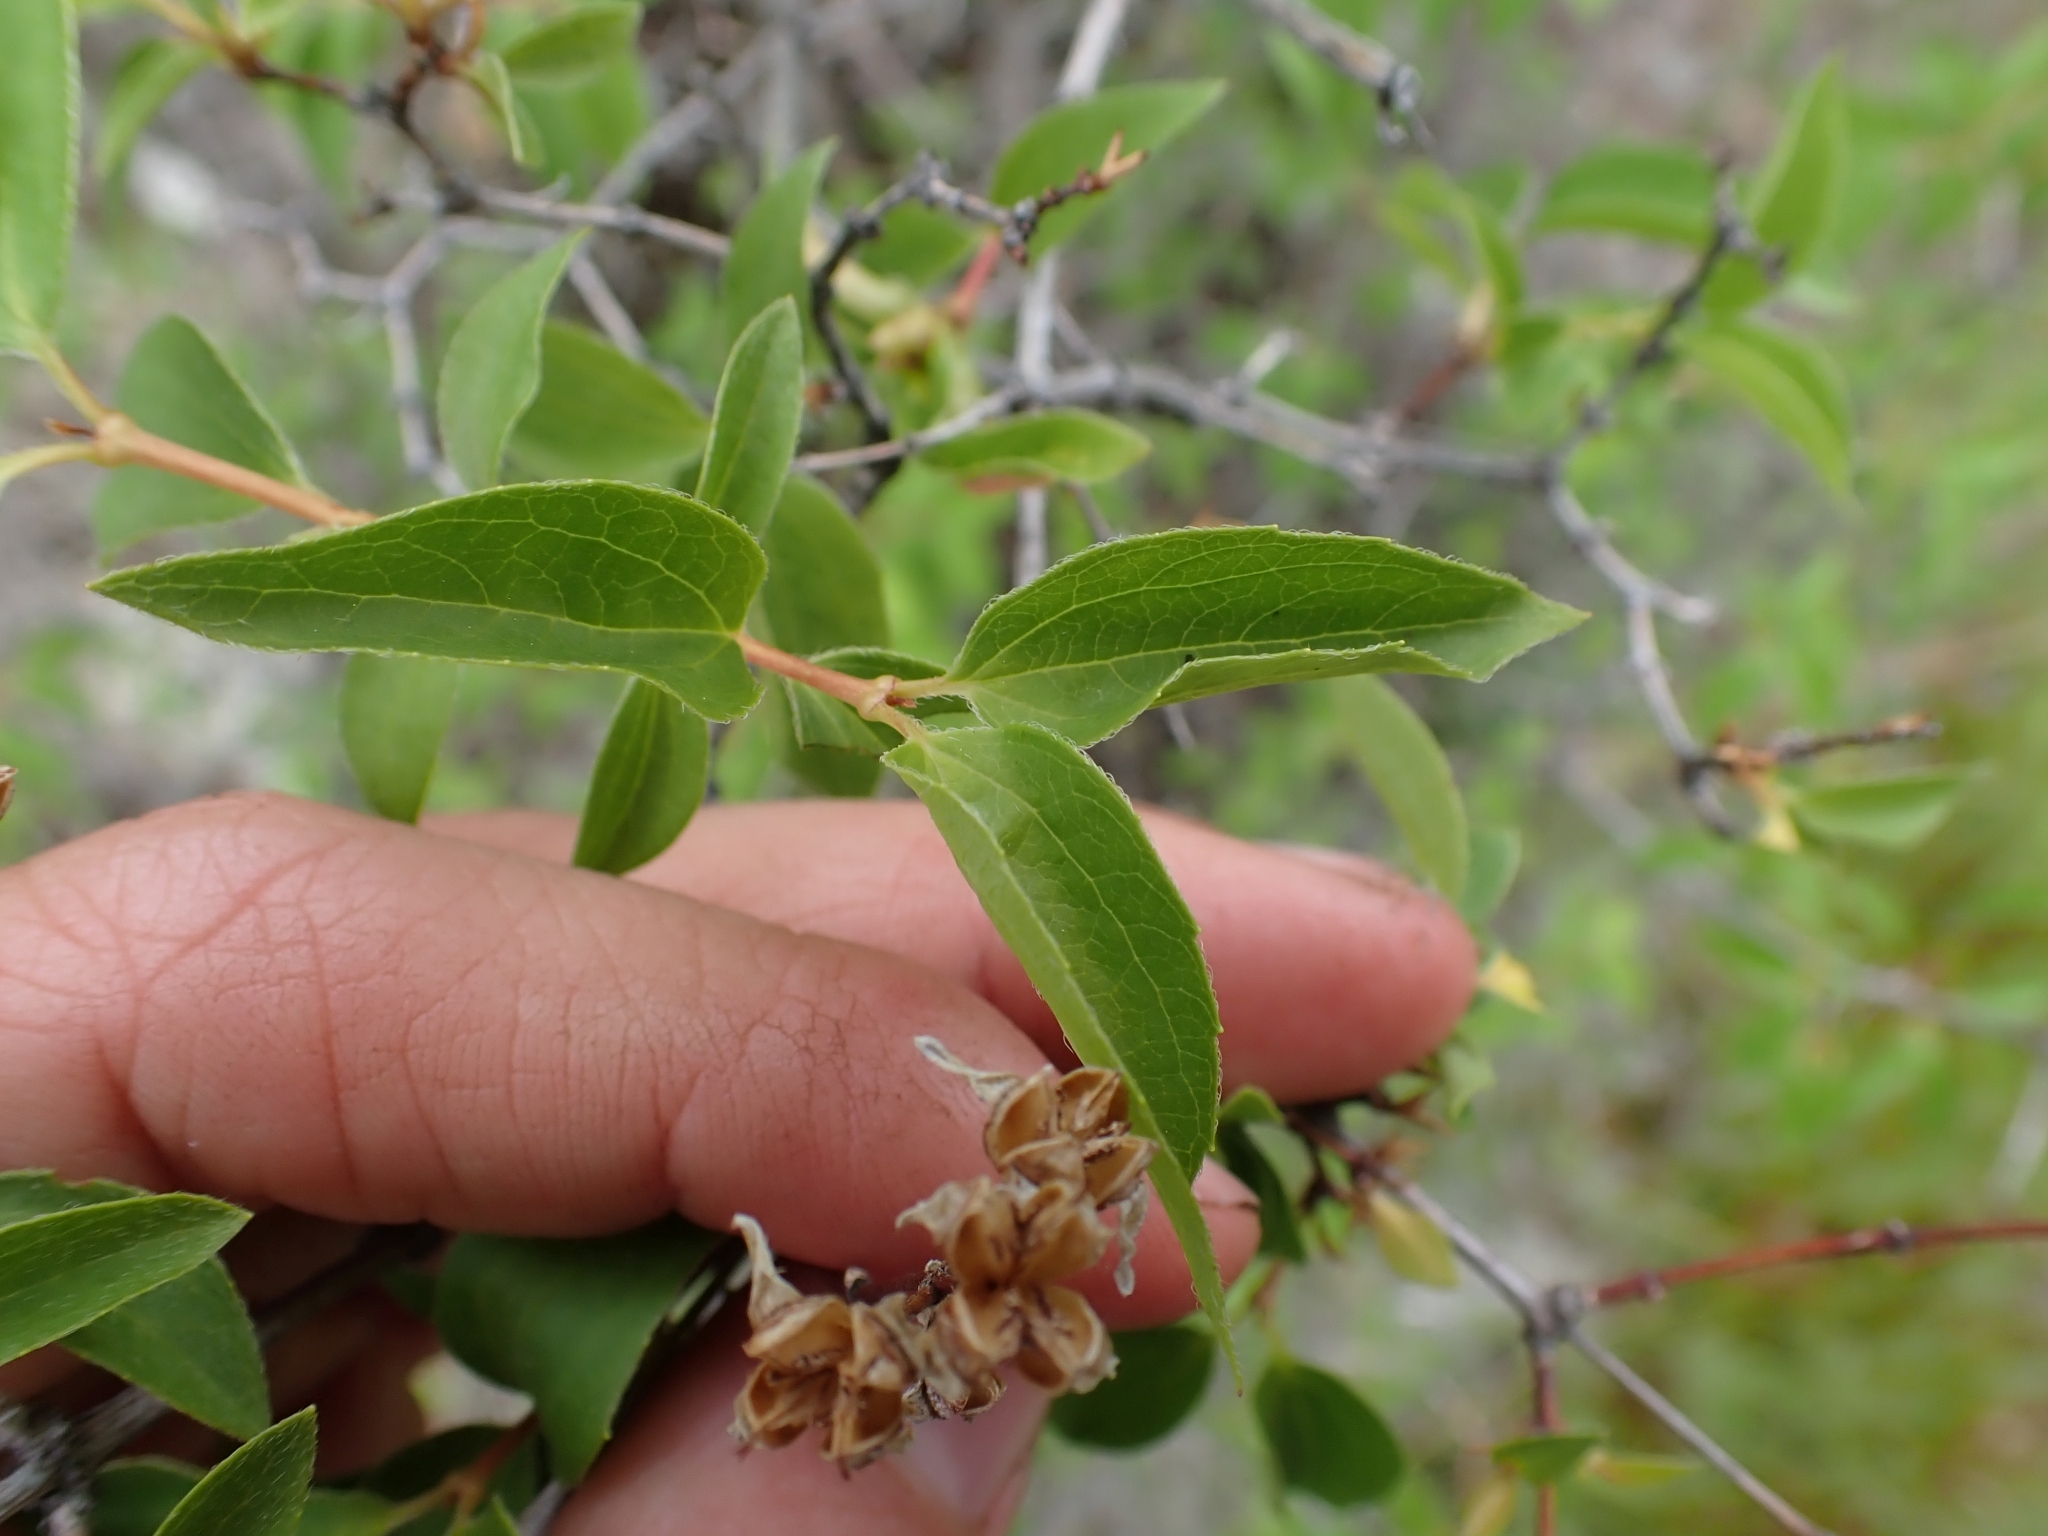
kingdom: Plantae
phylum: Tracheophyta
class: Magnoliopsida
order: Cornales
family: Hydrangeaceae
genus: Philadelphus
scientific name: Philadelphus lewisii
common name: Lewis's mock orange
